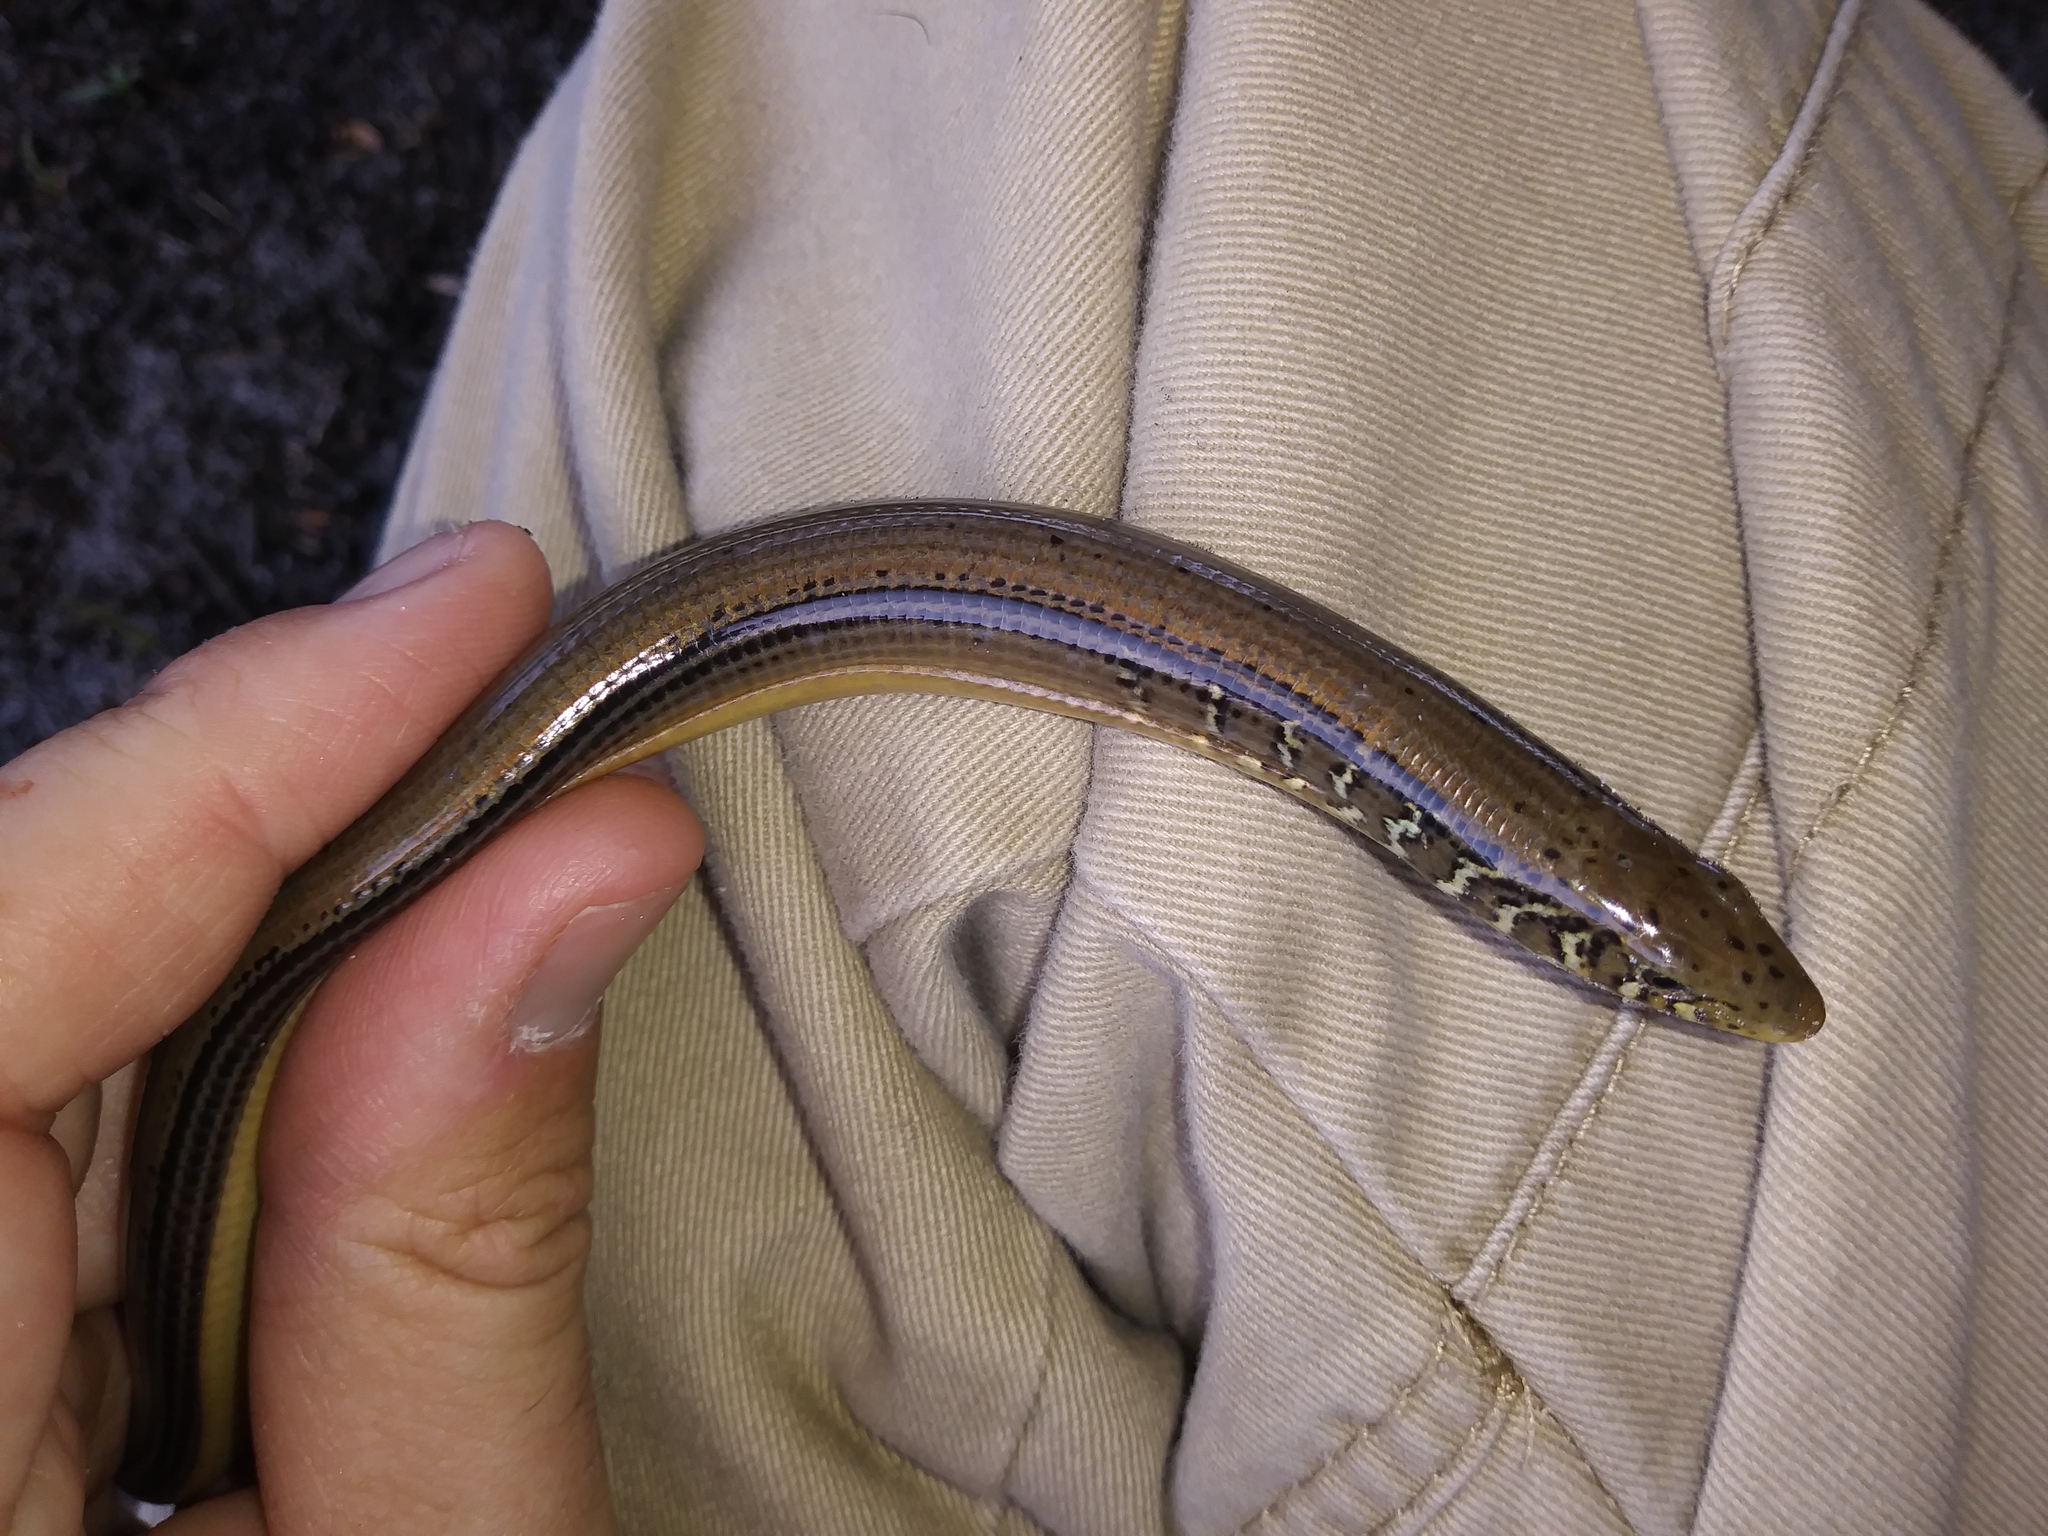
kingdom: Animalia
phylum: Chordata
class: Squamata
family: Anguidae
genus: Ophisaurus
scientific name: Ophisaurus ventralis
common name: Eastern glass lizard
